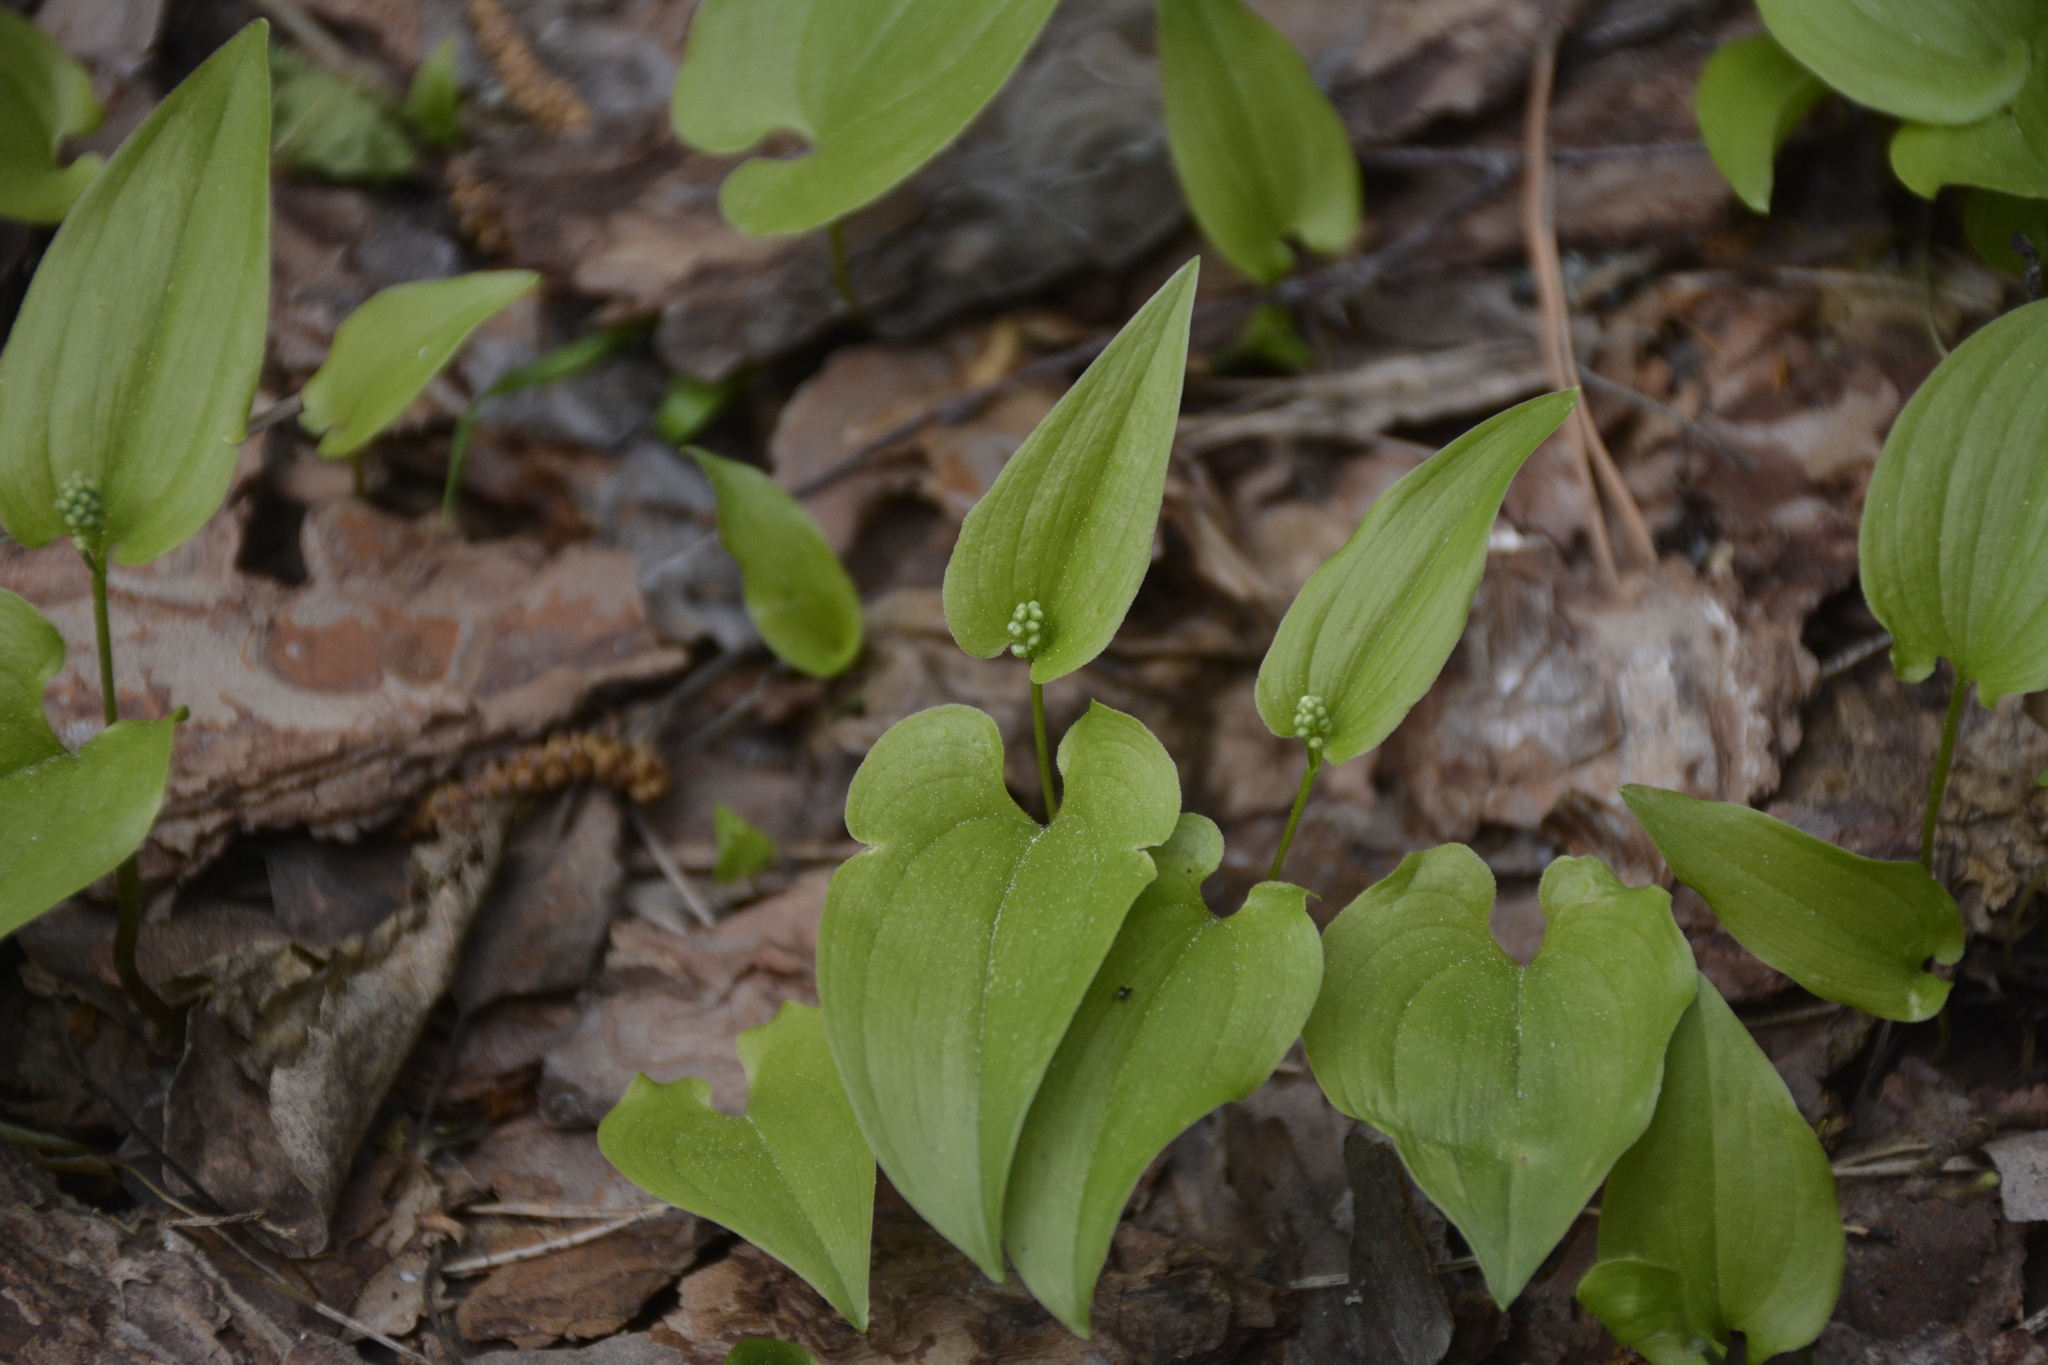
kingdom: Plantae
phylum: Tracheophyta
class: Liliopsida
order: Asparagales
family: Asparagaceae
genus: Maianthemum
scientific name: Maianthemum bifolium
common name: May lily
